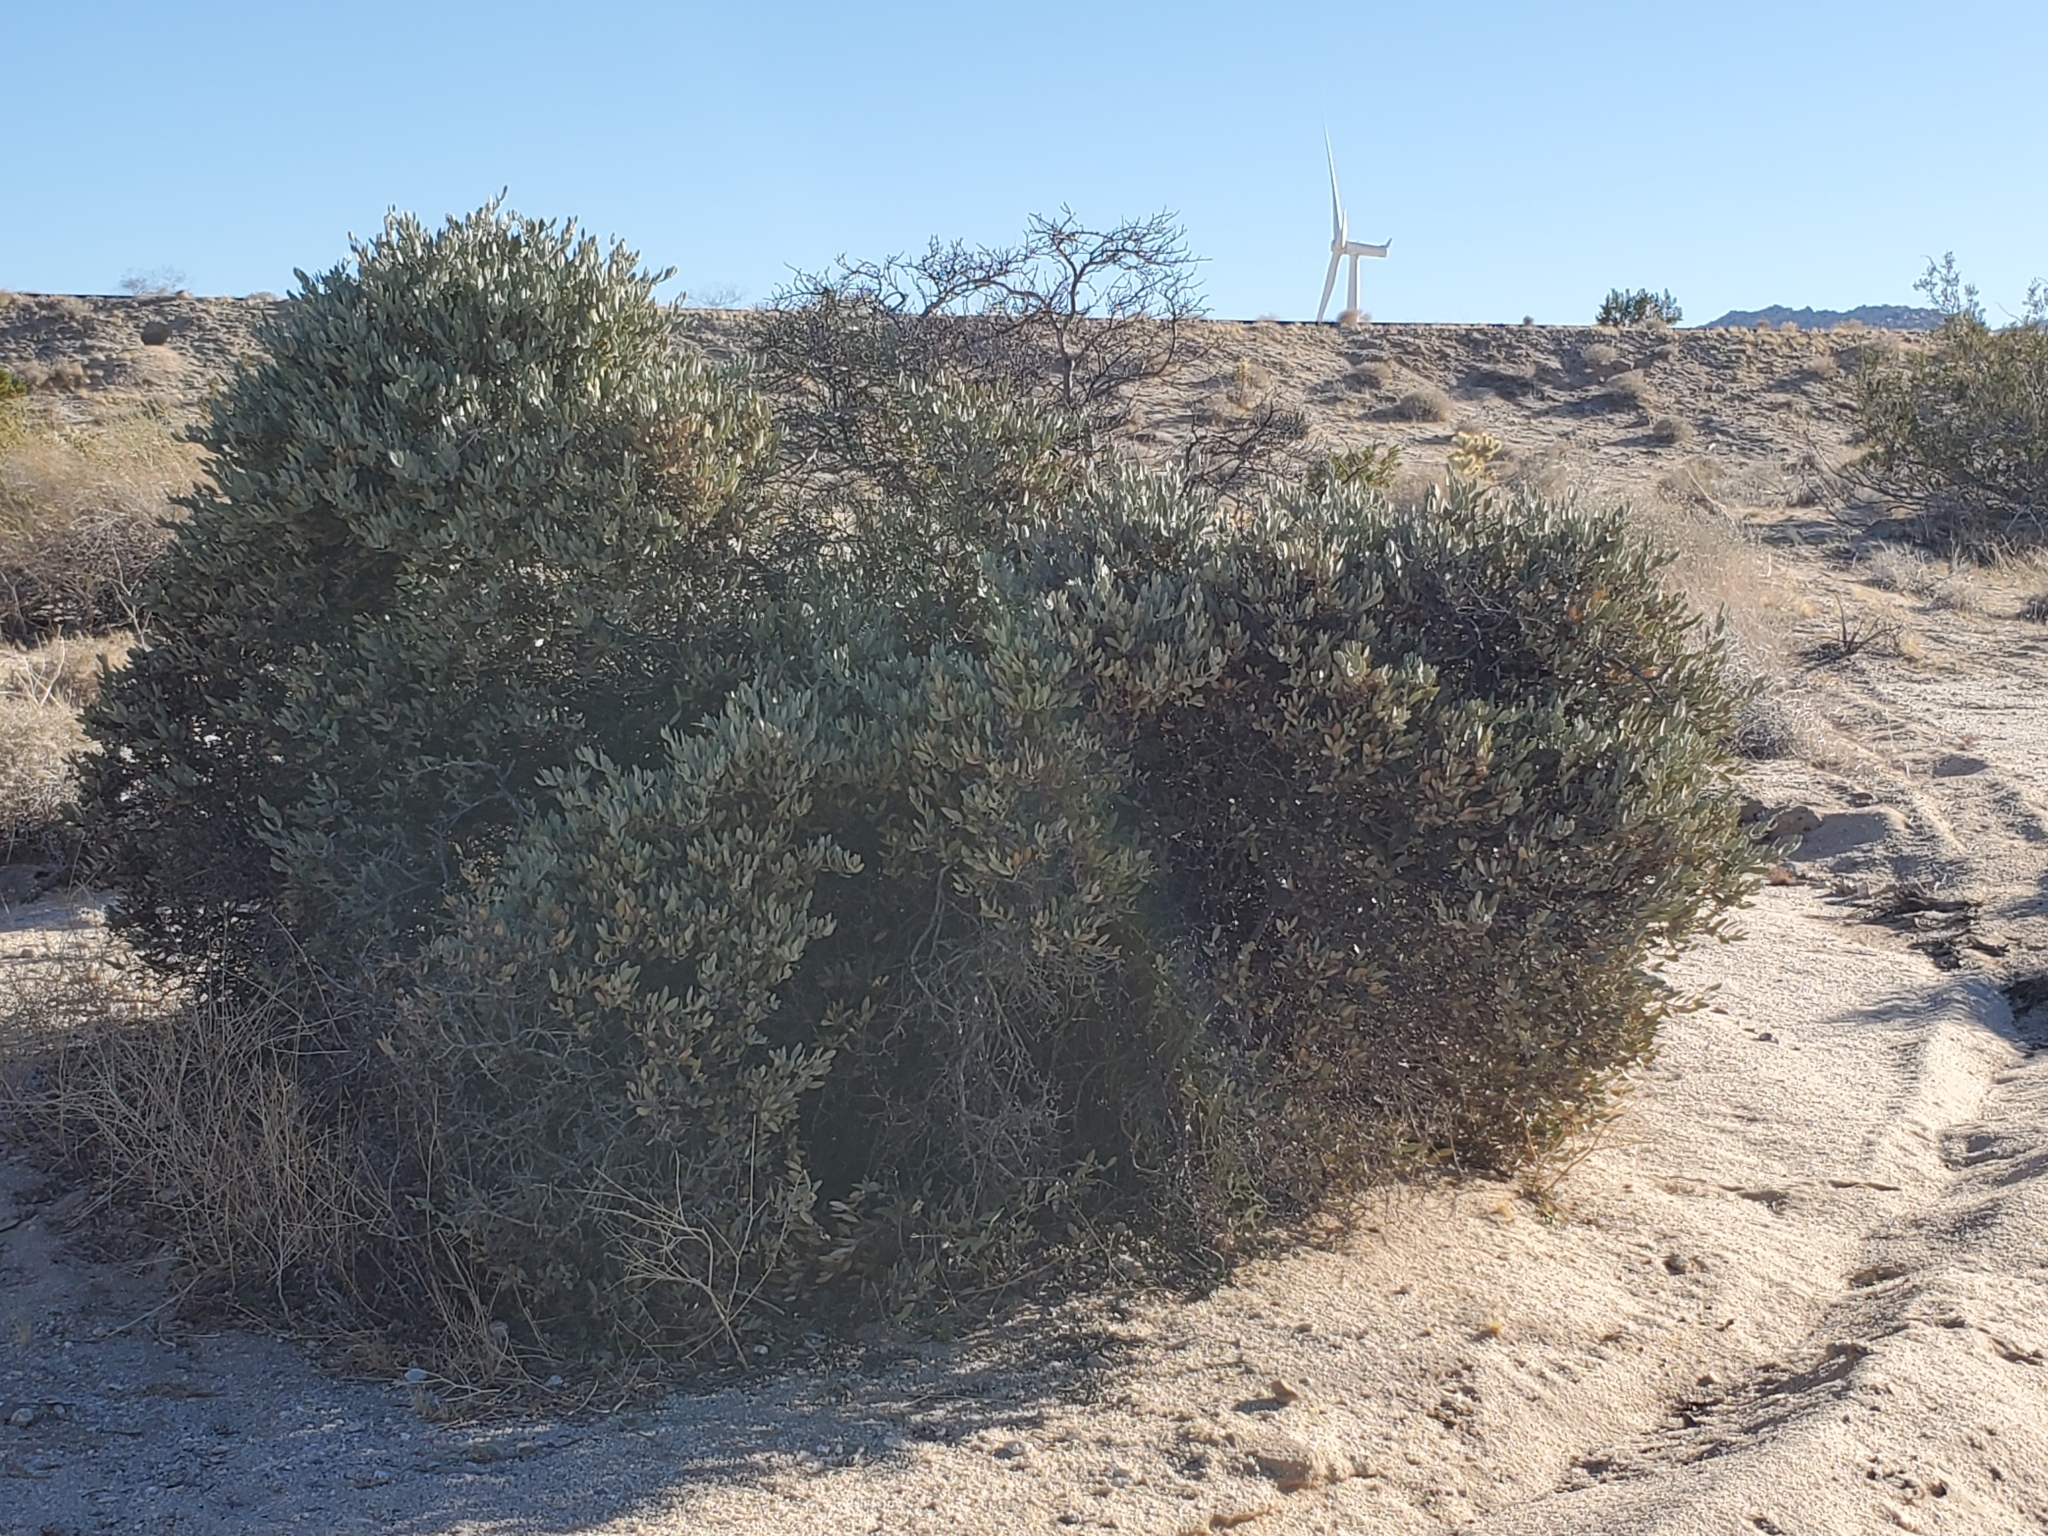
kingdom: Plantae
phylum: Tracheophyta
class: Magnoliopsida
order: Caryophyllales
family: Simmondsiaceae
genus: Simmondsia
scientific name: Simmondsia chinensis
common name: Jojoba
